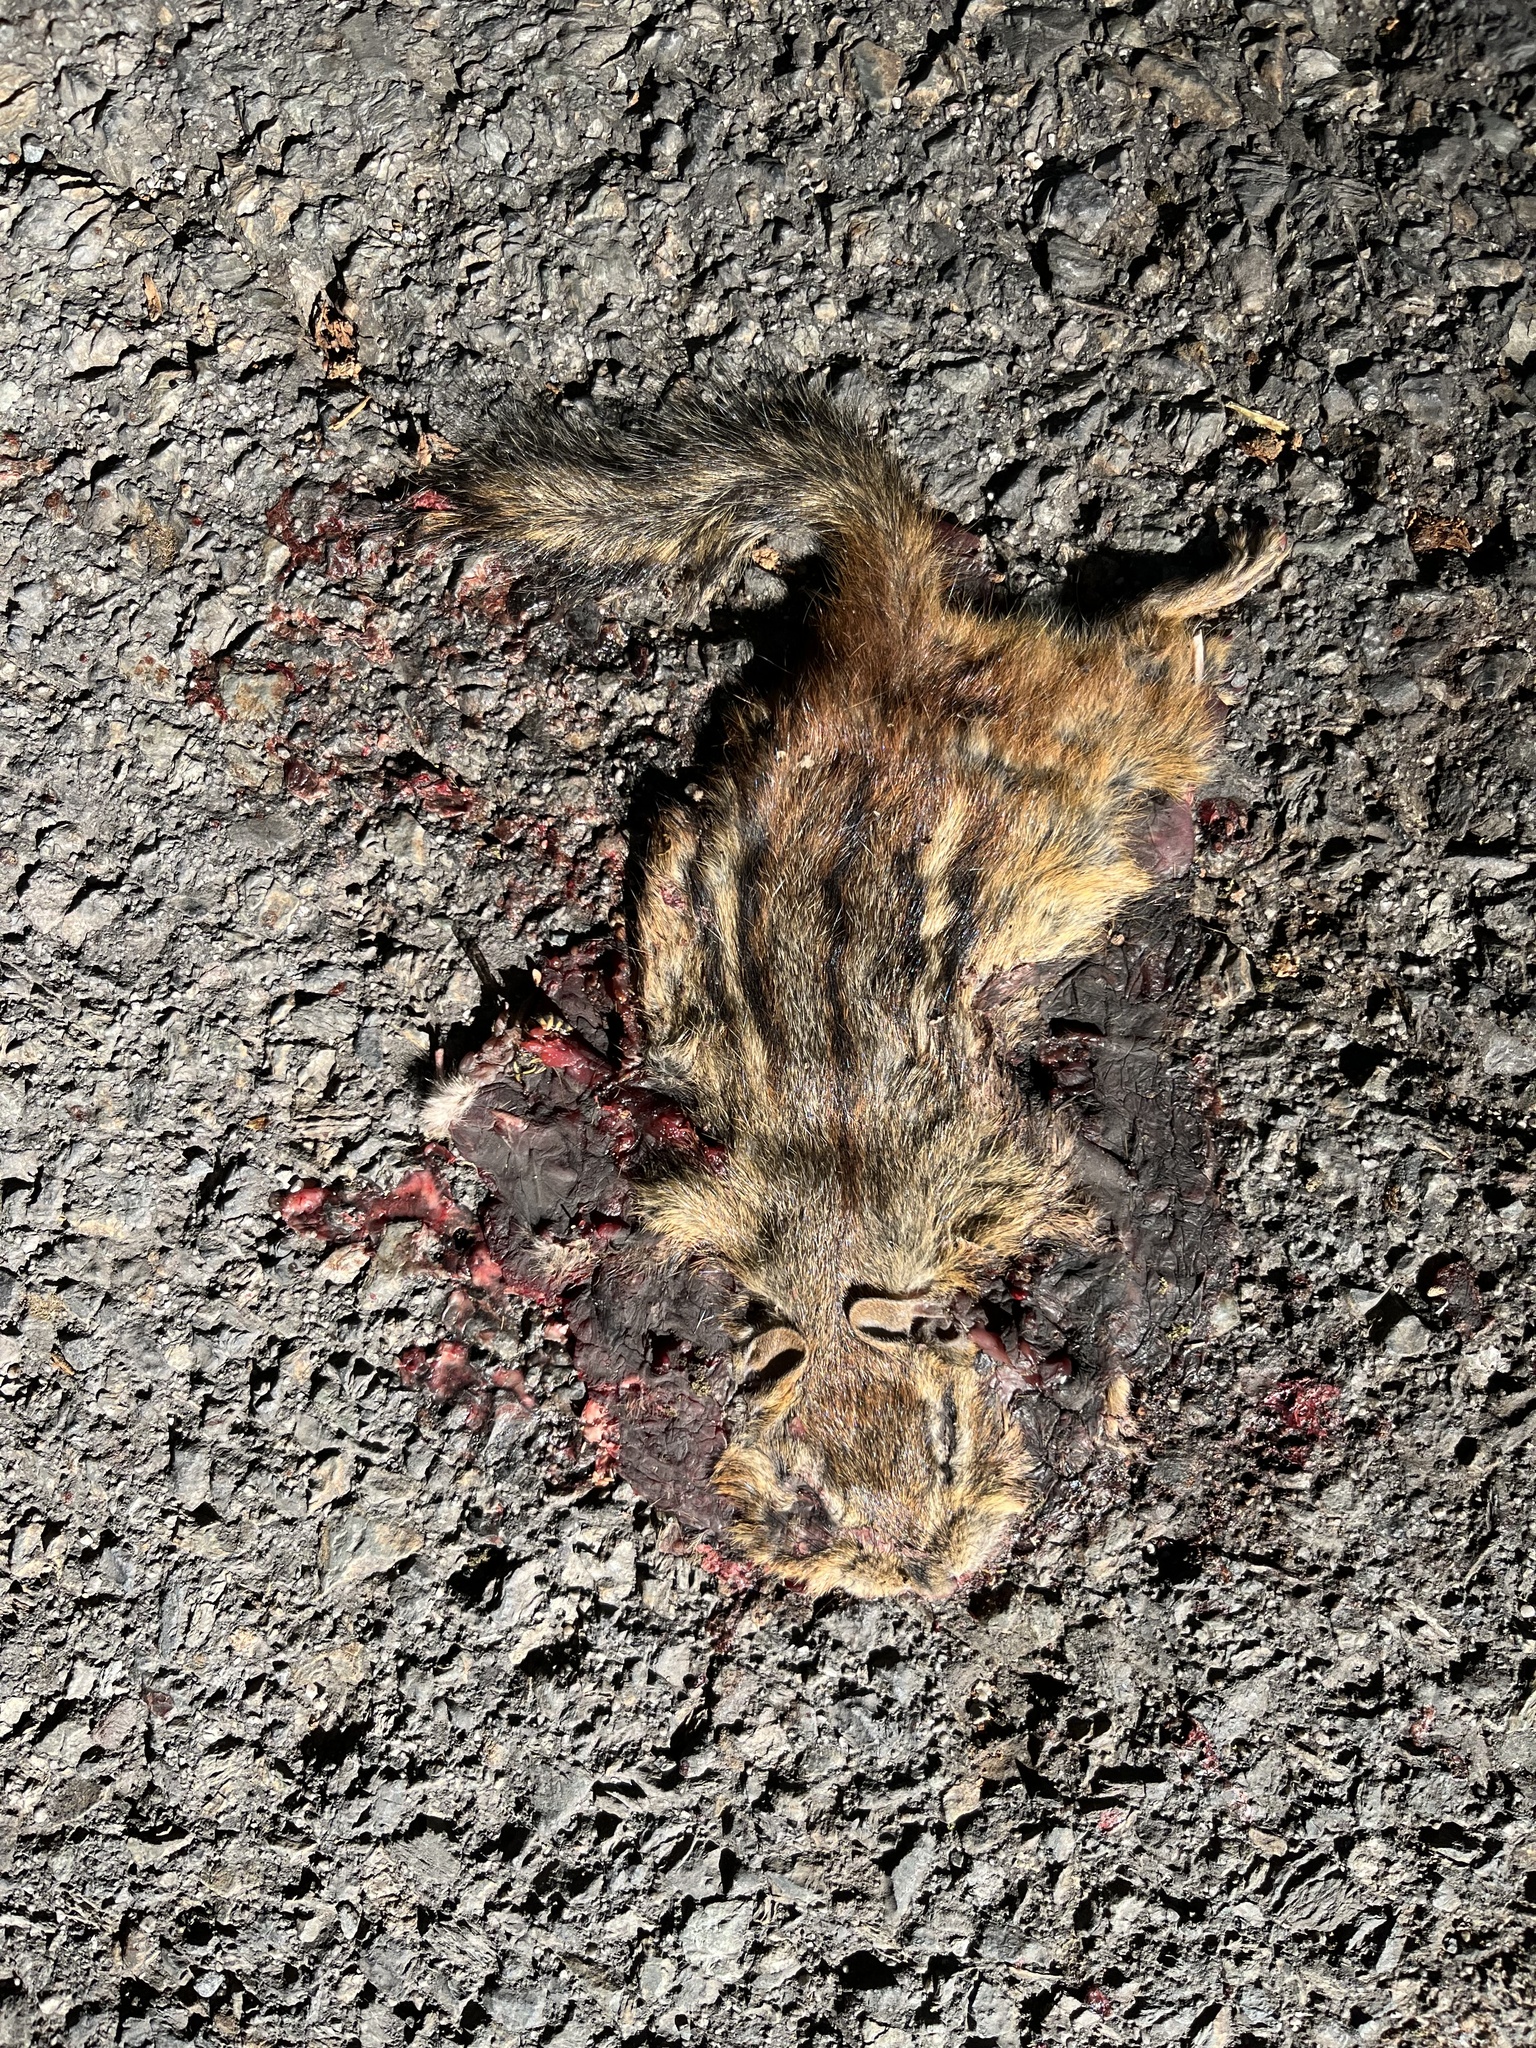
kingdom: Animalia
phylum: Chordata
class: Mammalia
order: Rodentia
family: Sciuridae
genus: Tamias
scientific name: Tamias striatus
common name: Eastern chipmunk
